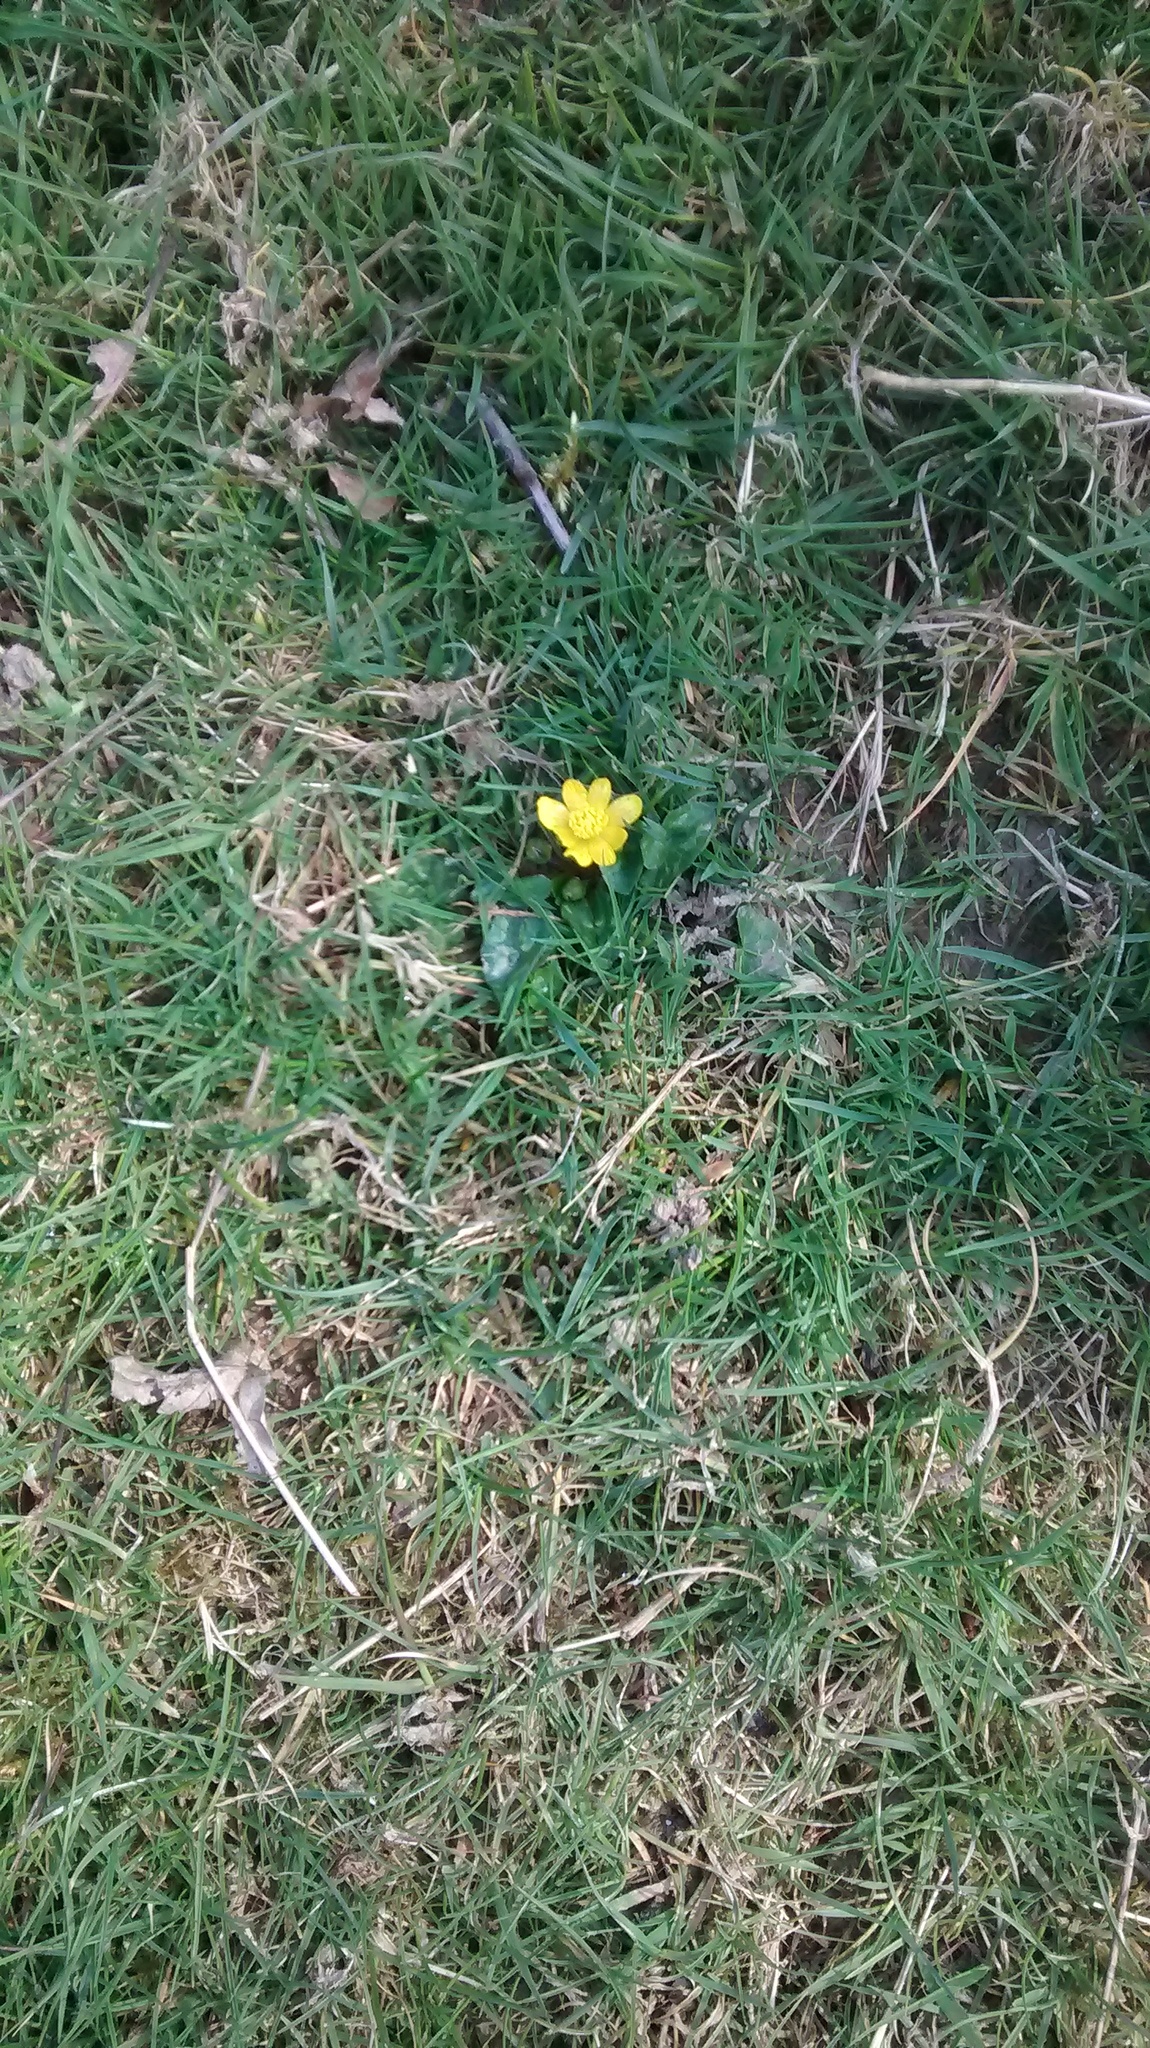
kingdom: Plantae
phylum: Tracheophyta
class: Magnoliopsida
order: Ranunculales
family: Ranunculaceae
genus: Ficaria
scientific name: Ficaria verna
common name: Lesser celandine
